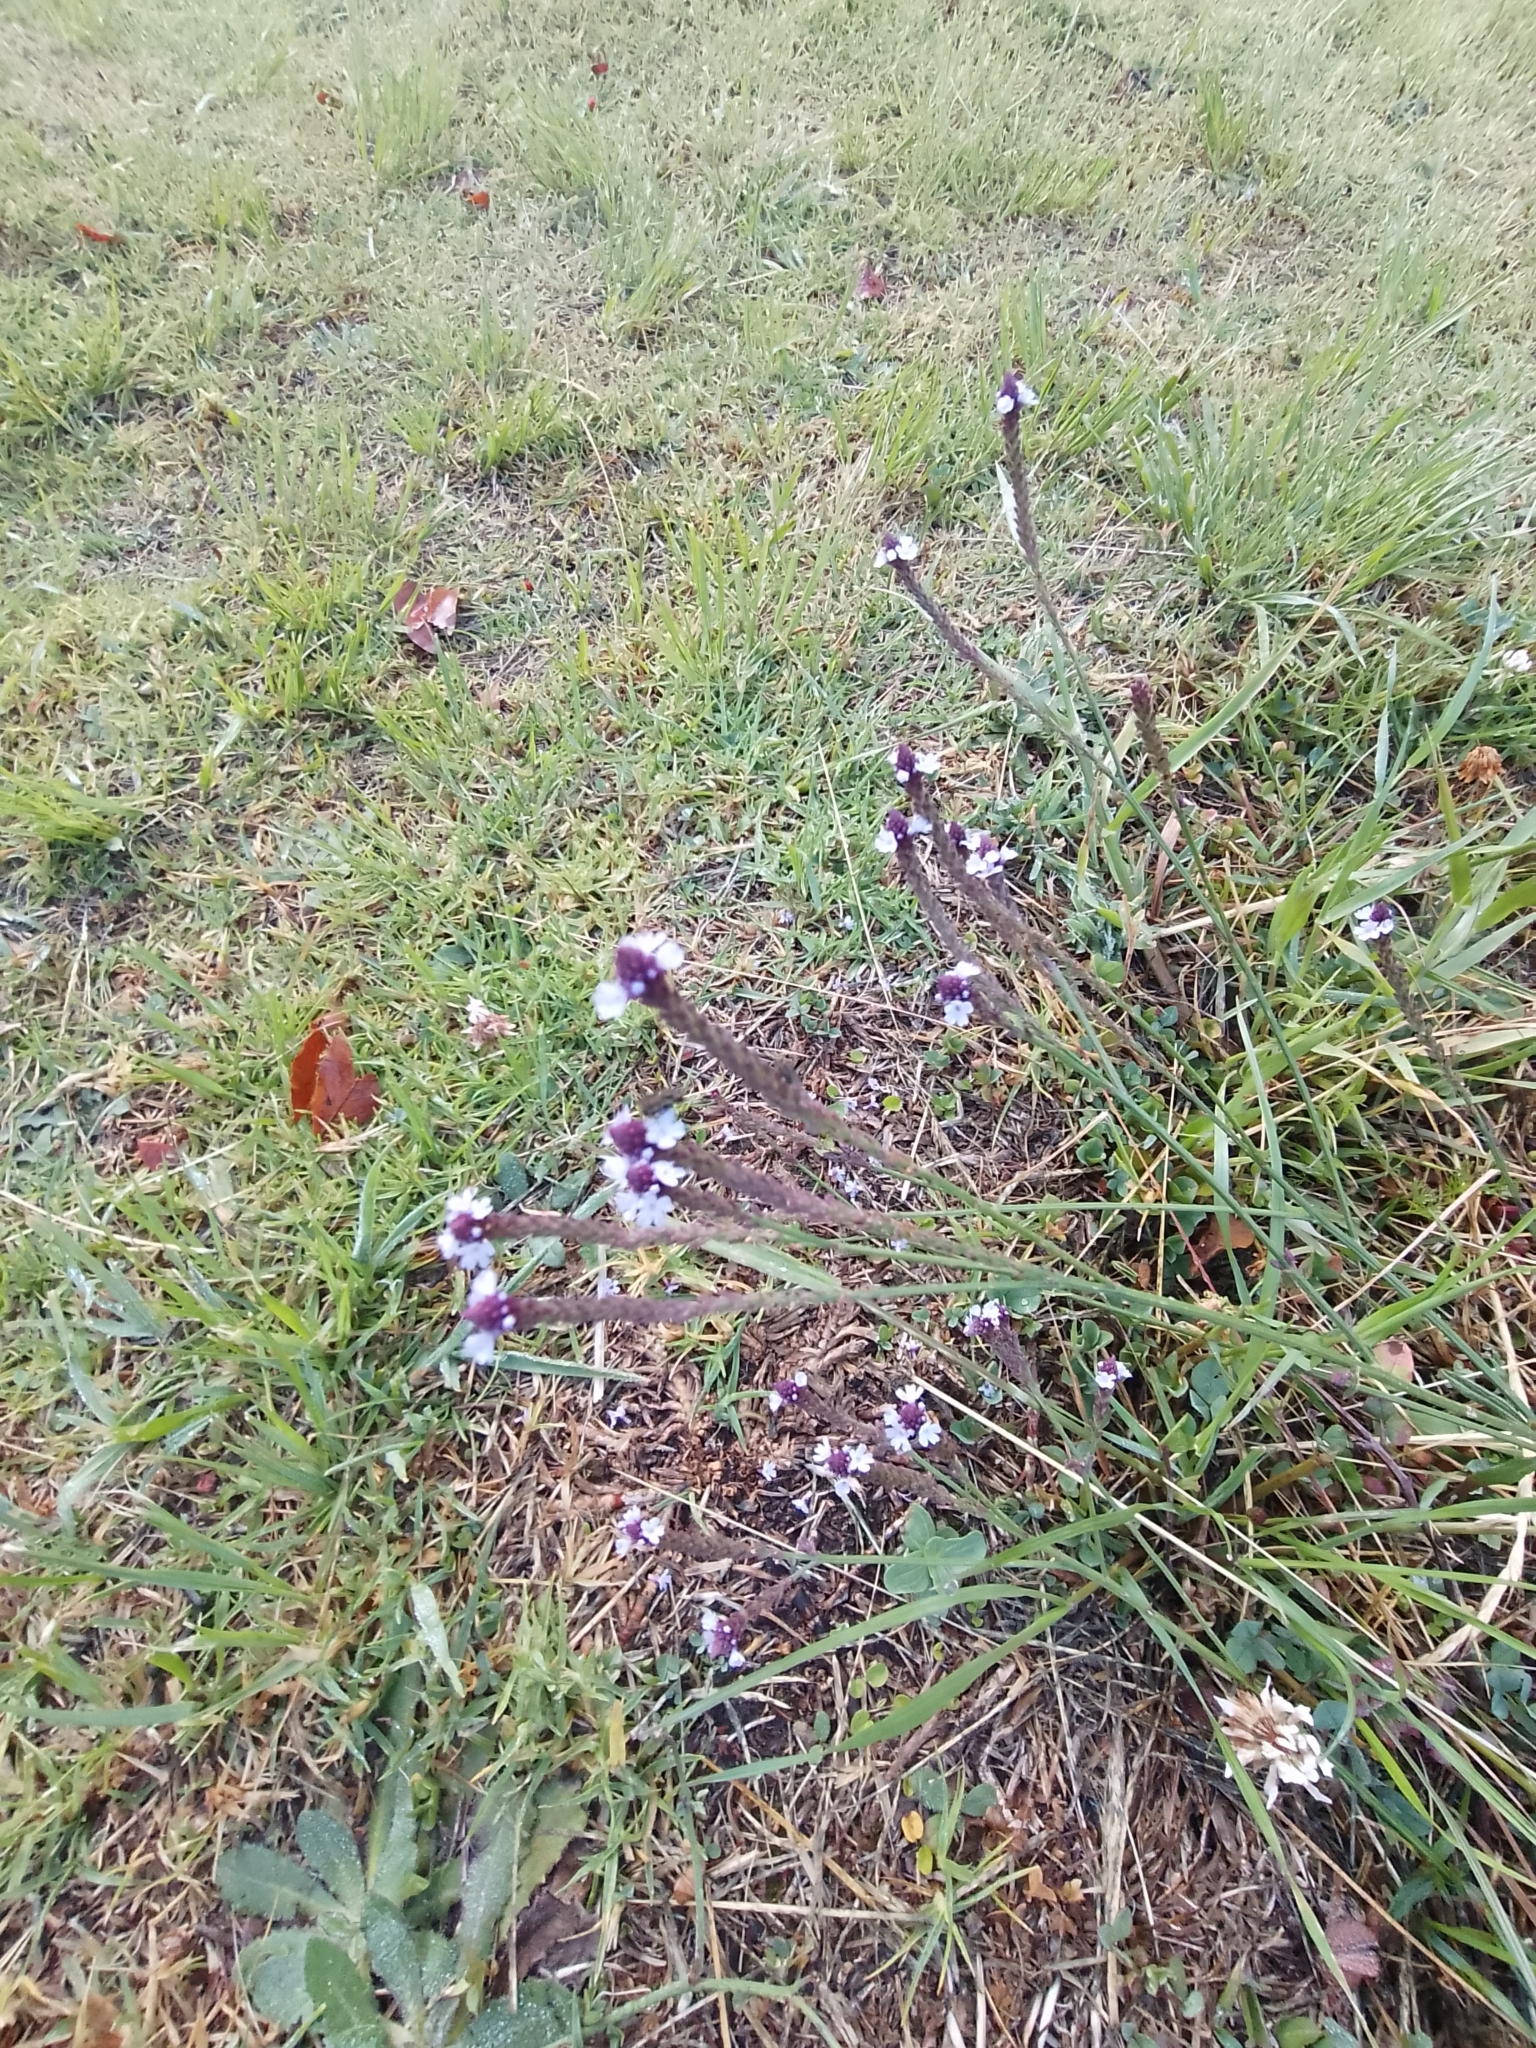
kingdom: Plantae
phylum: Tracheophyta
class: Magnoliopsida
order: Lamiales
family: Verbenaceae
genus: Verbena
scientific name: Verbena litoralis
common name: Seashore vervain
